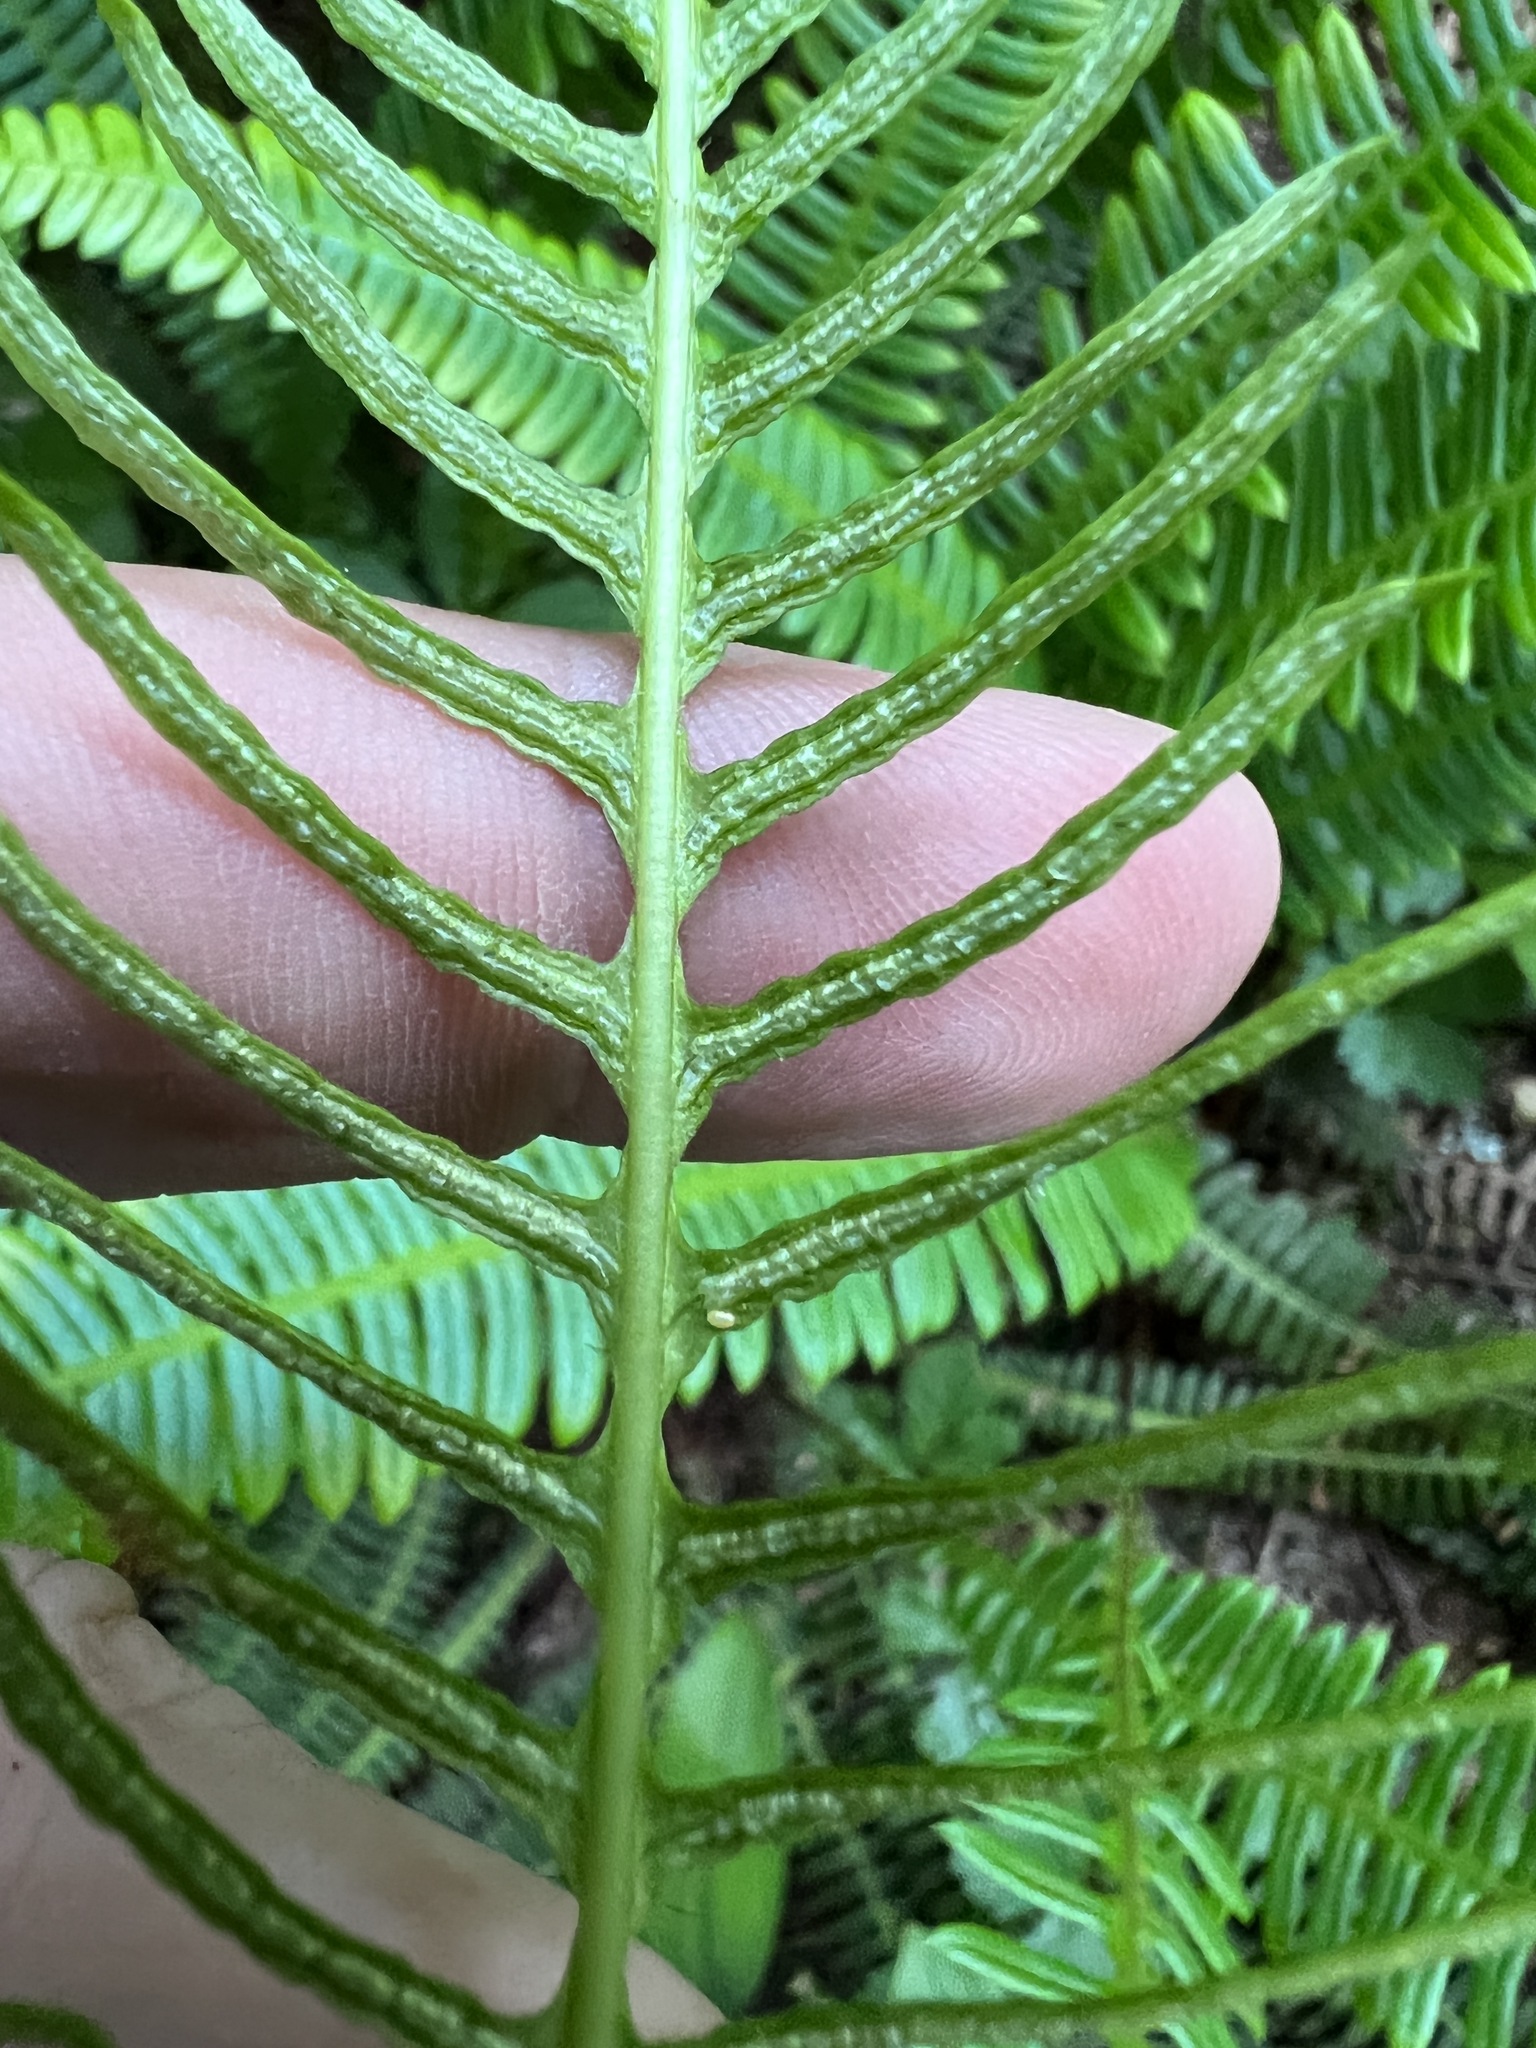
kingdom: Plantae
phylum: Tracheophyta
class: Polypodiopsida
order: Polypodiales
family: Blechnaceae
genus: Struthiopteris
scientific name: Struthiopteris spicant
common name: Deer fern
